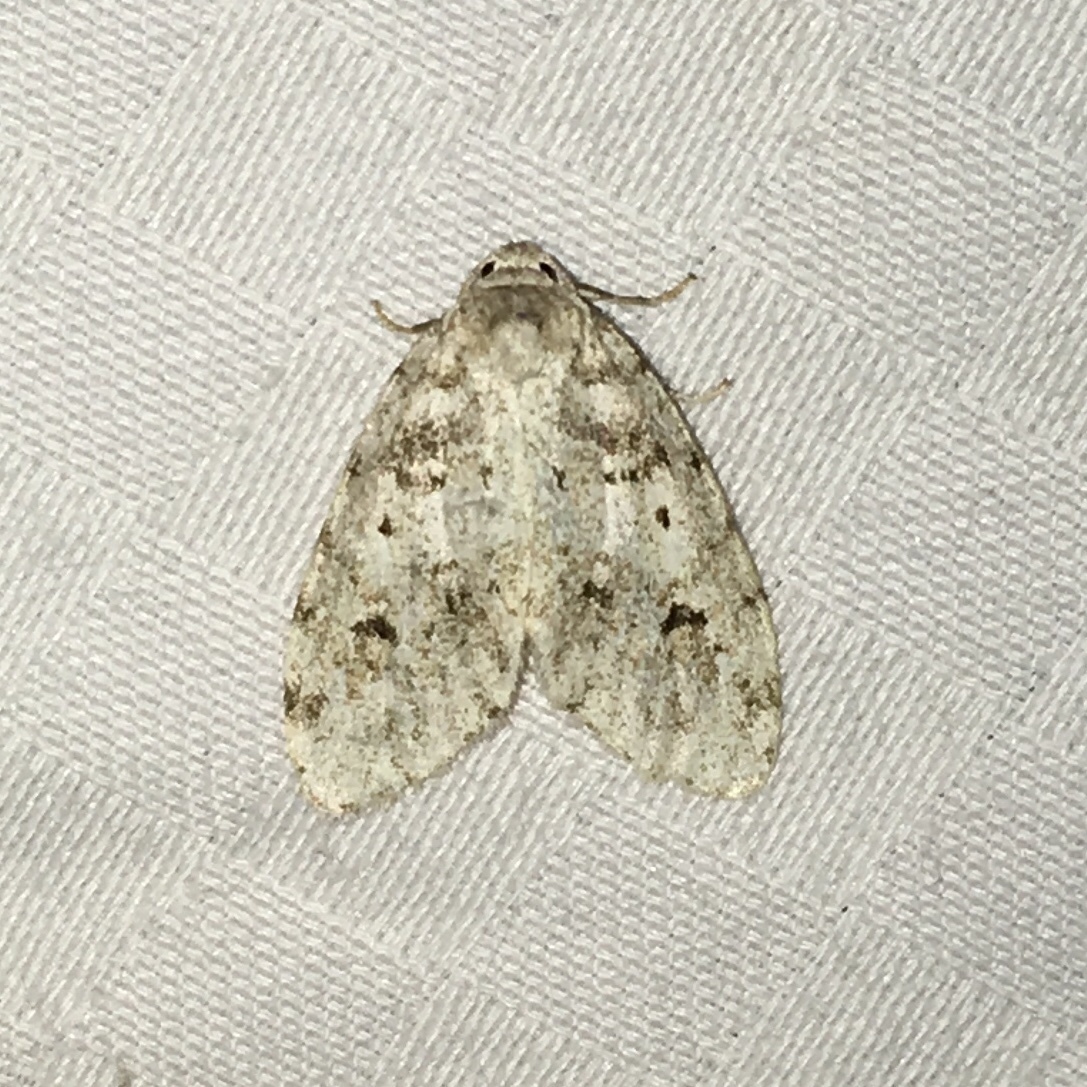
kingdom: Animalia
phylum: Arthropoda
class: Insecta
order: Lepidoptera
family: Erebidae
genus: Clemensia
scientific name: Clemensia albata
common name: Little white lichen moth
